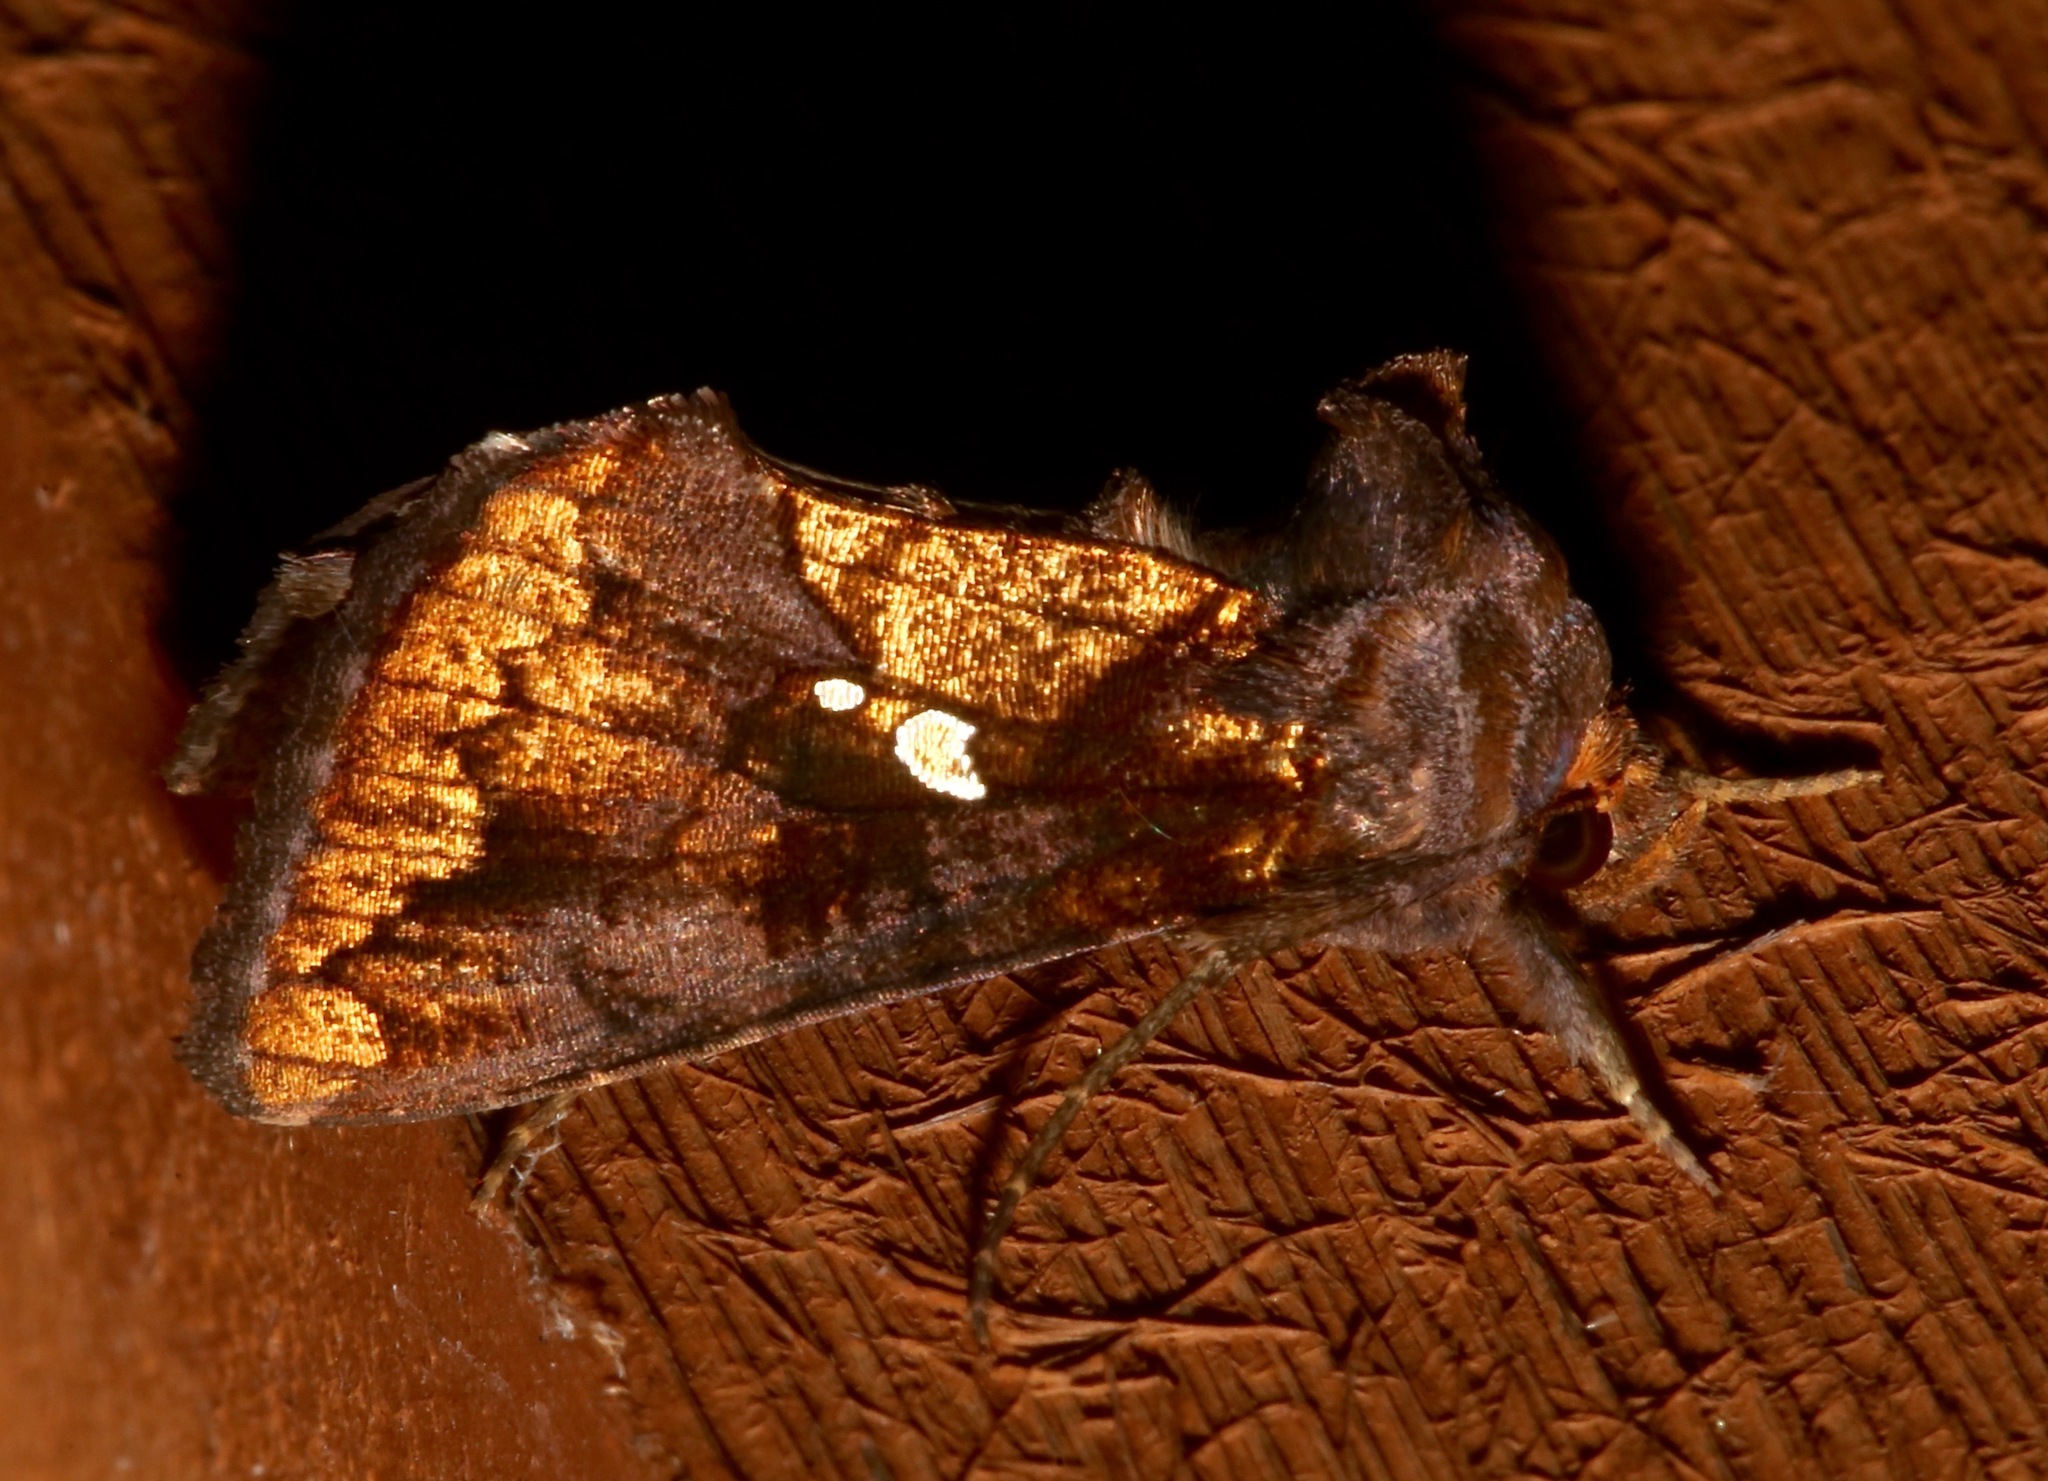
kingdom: Animalia
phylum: Arthropoda
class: Insecta
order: Lepidoptera
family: Noctuidae
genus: Argyrogramma
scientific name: Argyrogramma verruca
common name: Golden looper moth
